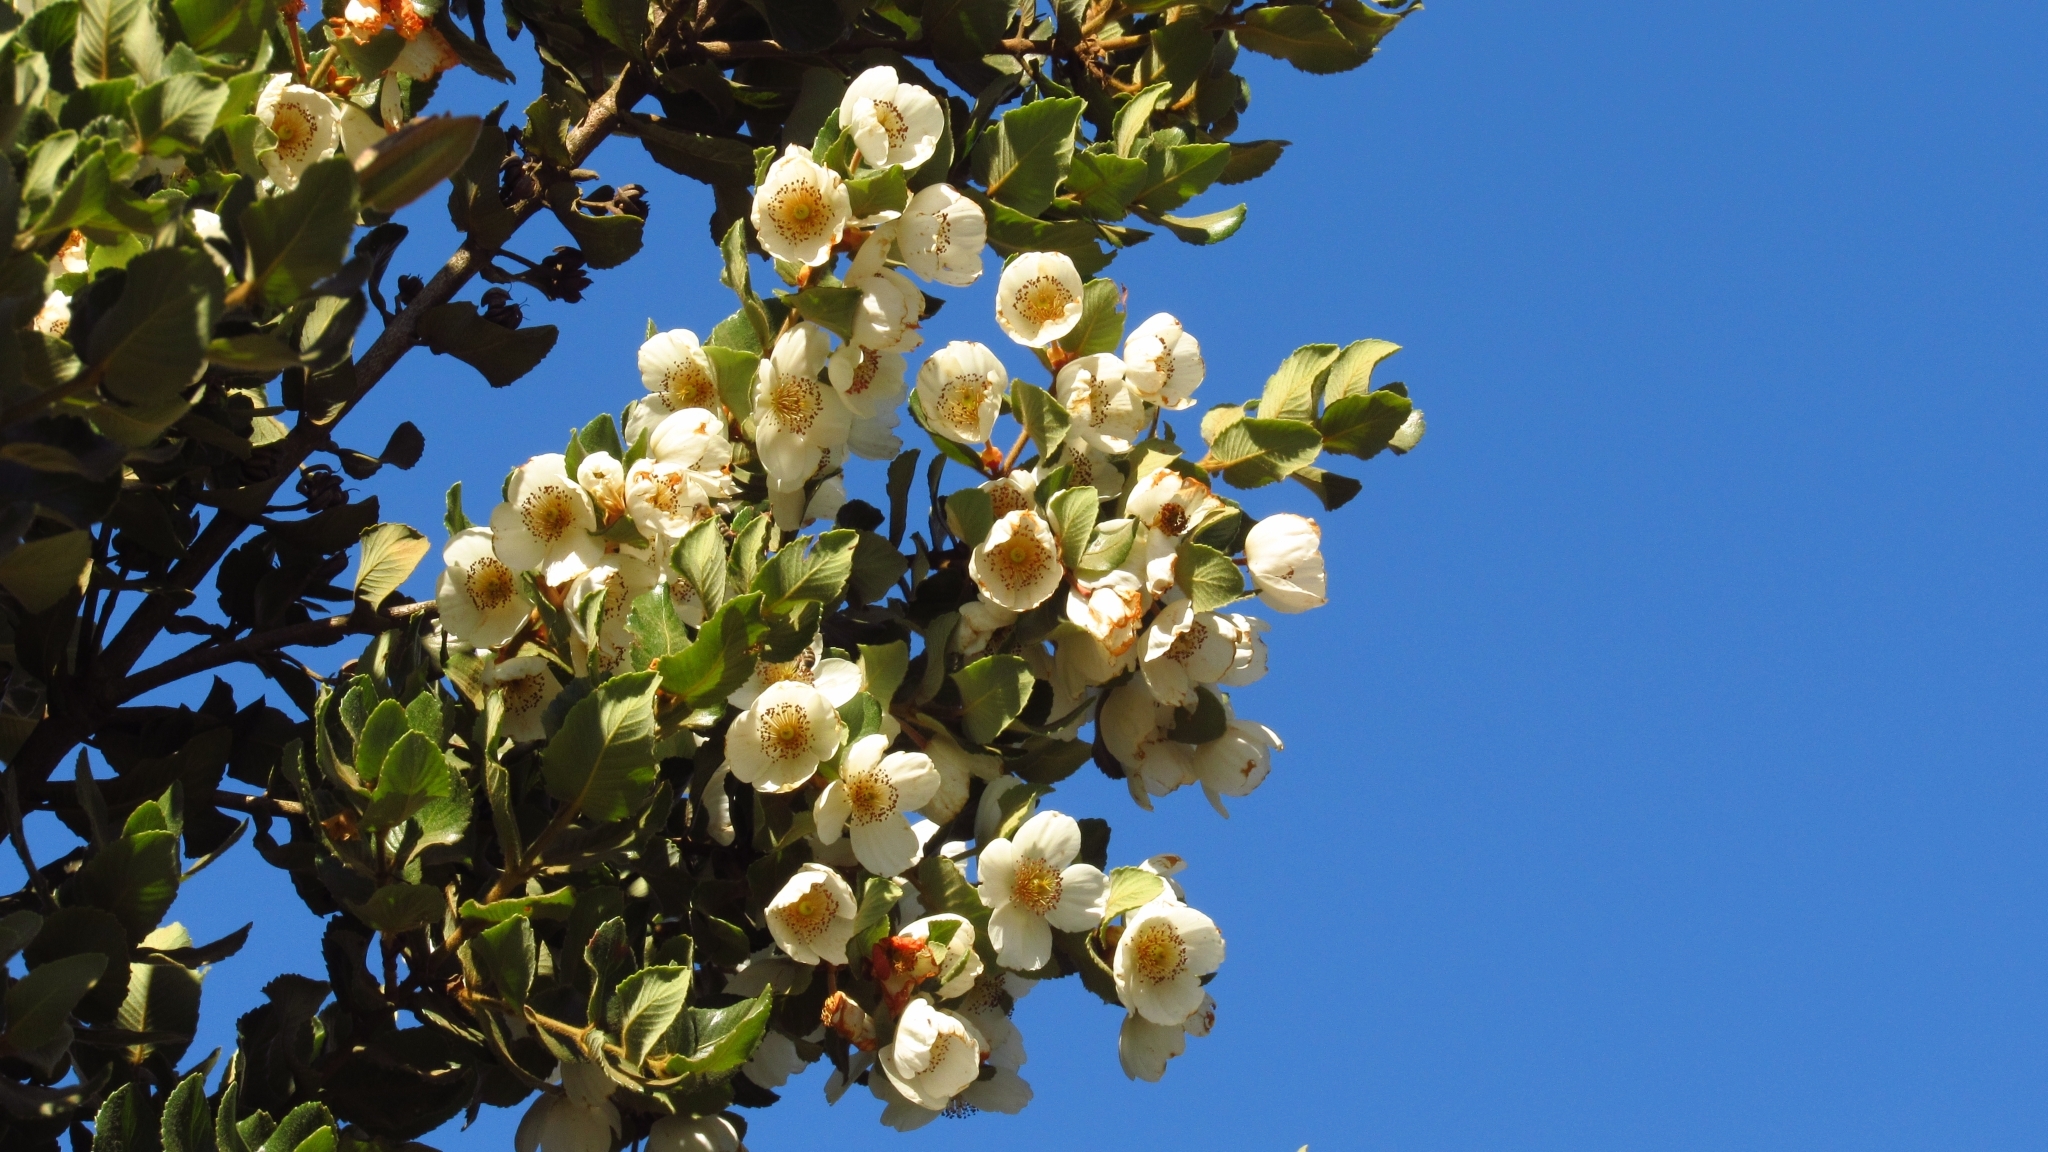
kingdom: Plantae
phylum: Tracheophyta
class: Magnoliopsida
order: Oxalidales
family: Cunoniaceae
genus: Eucryphia
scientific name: Eucryphia cordifolia
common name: Ulmo
